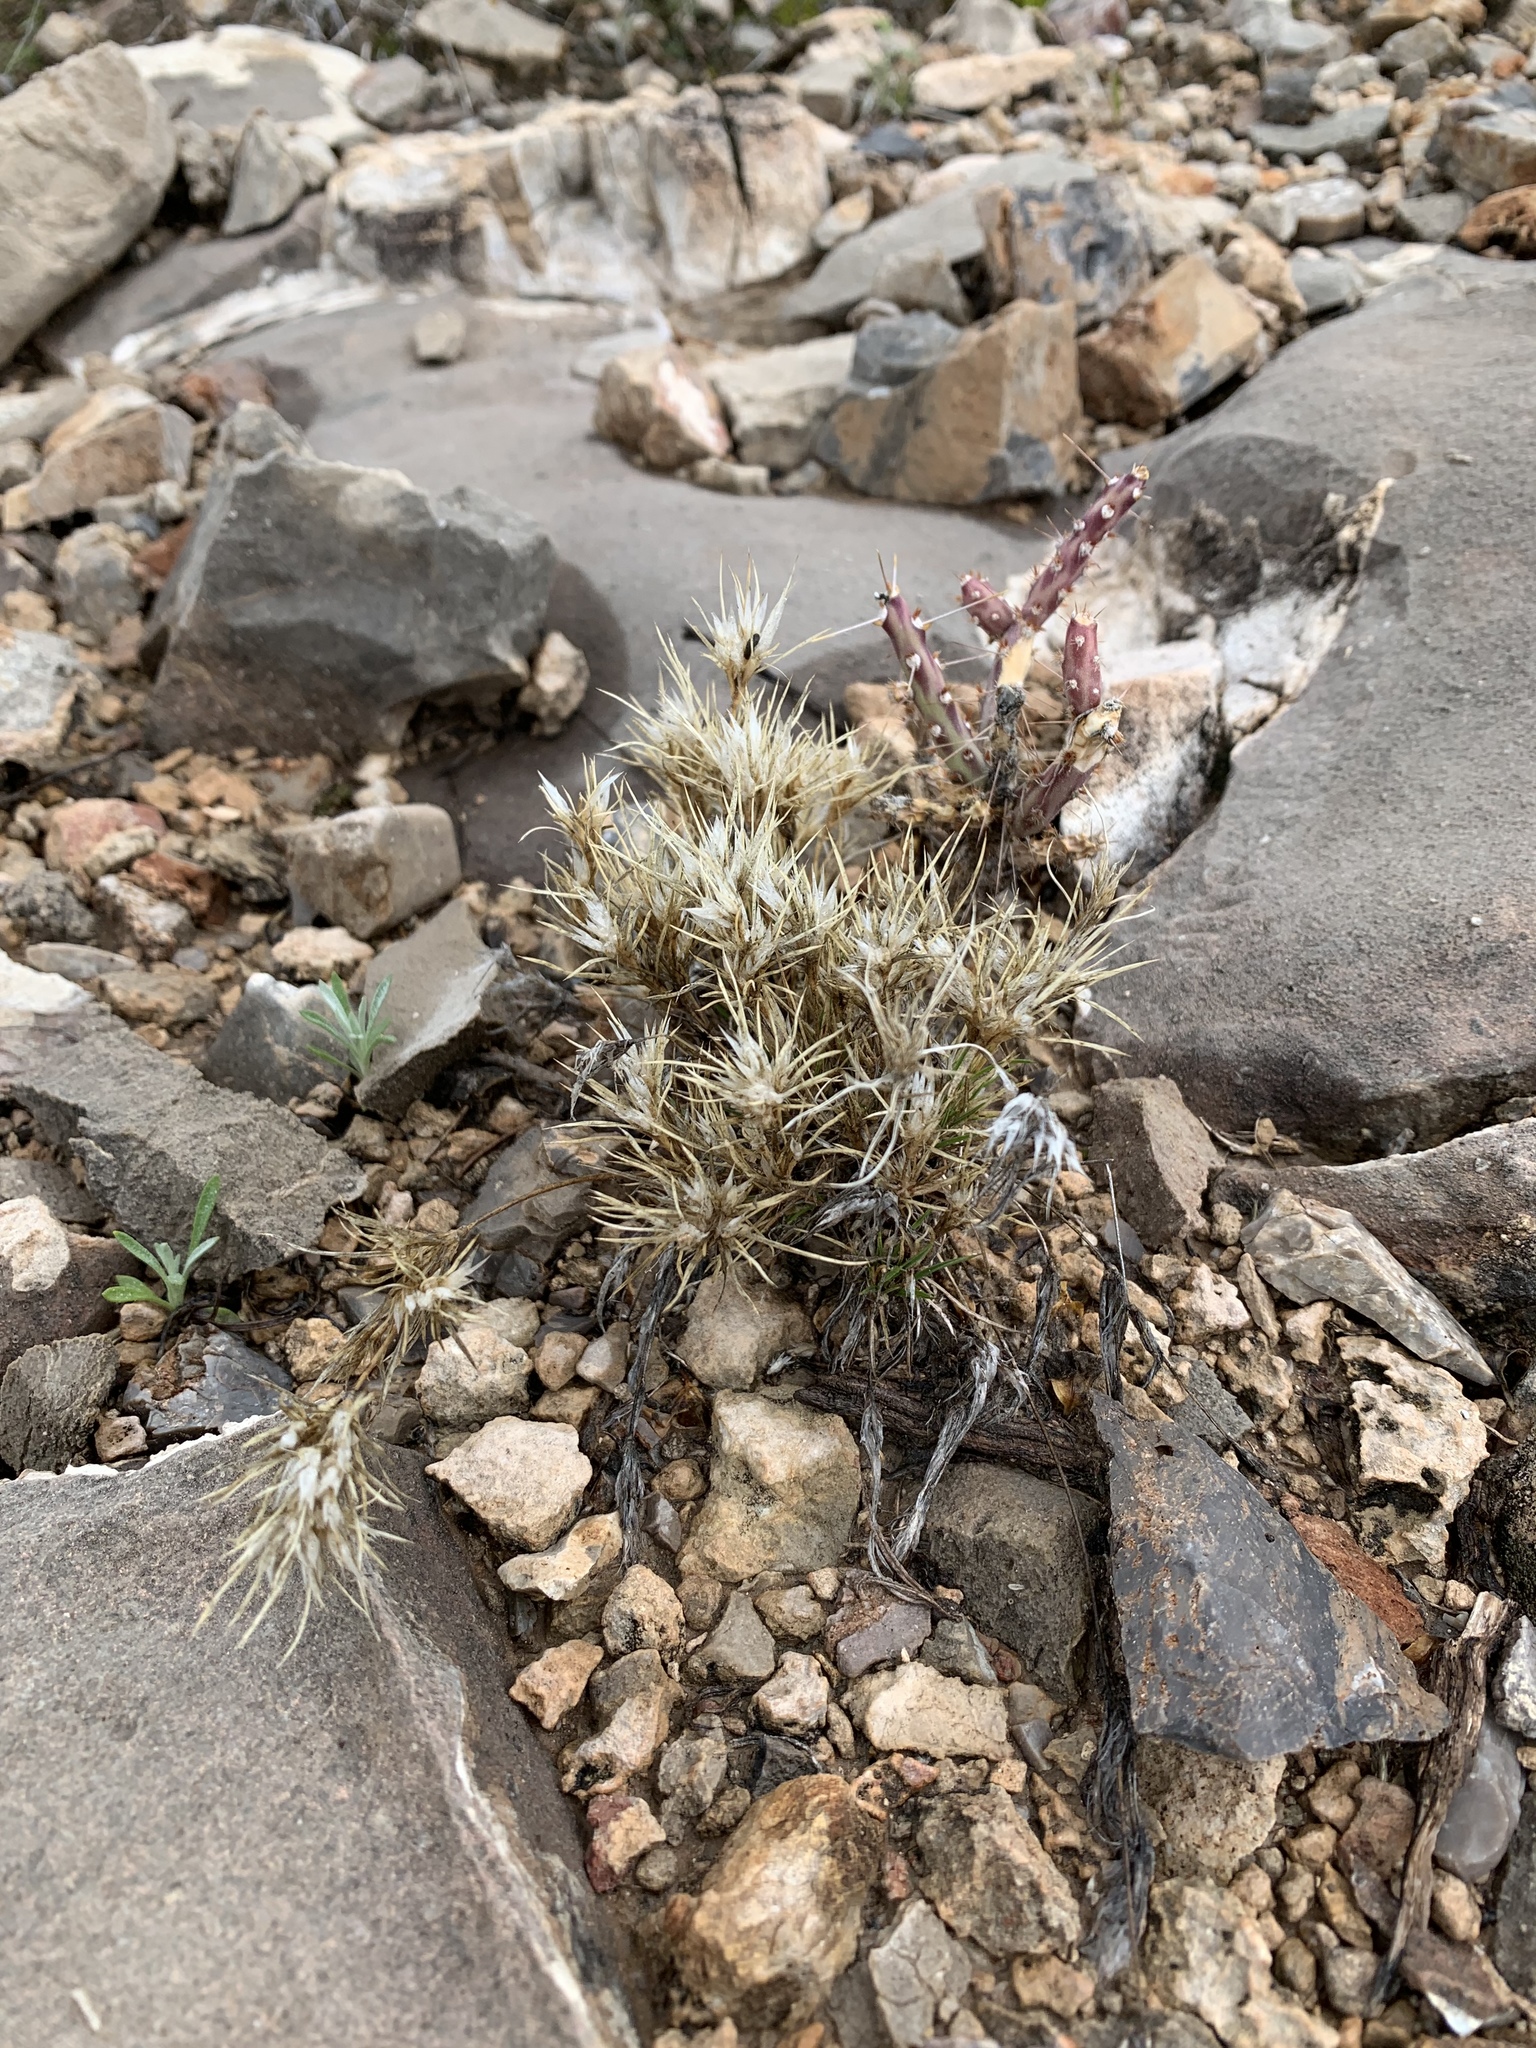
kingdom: Plantae
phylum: Tracheophyta
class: Liliopsida
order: Poales
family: Poaceae
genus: Dasyochloa
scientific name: Dasyochloa pulchella
